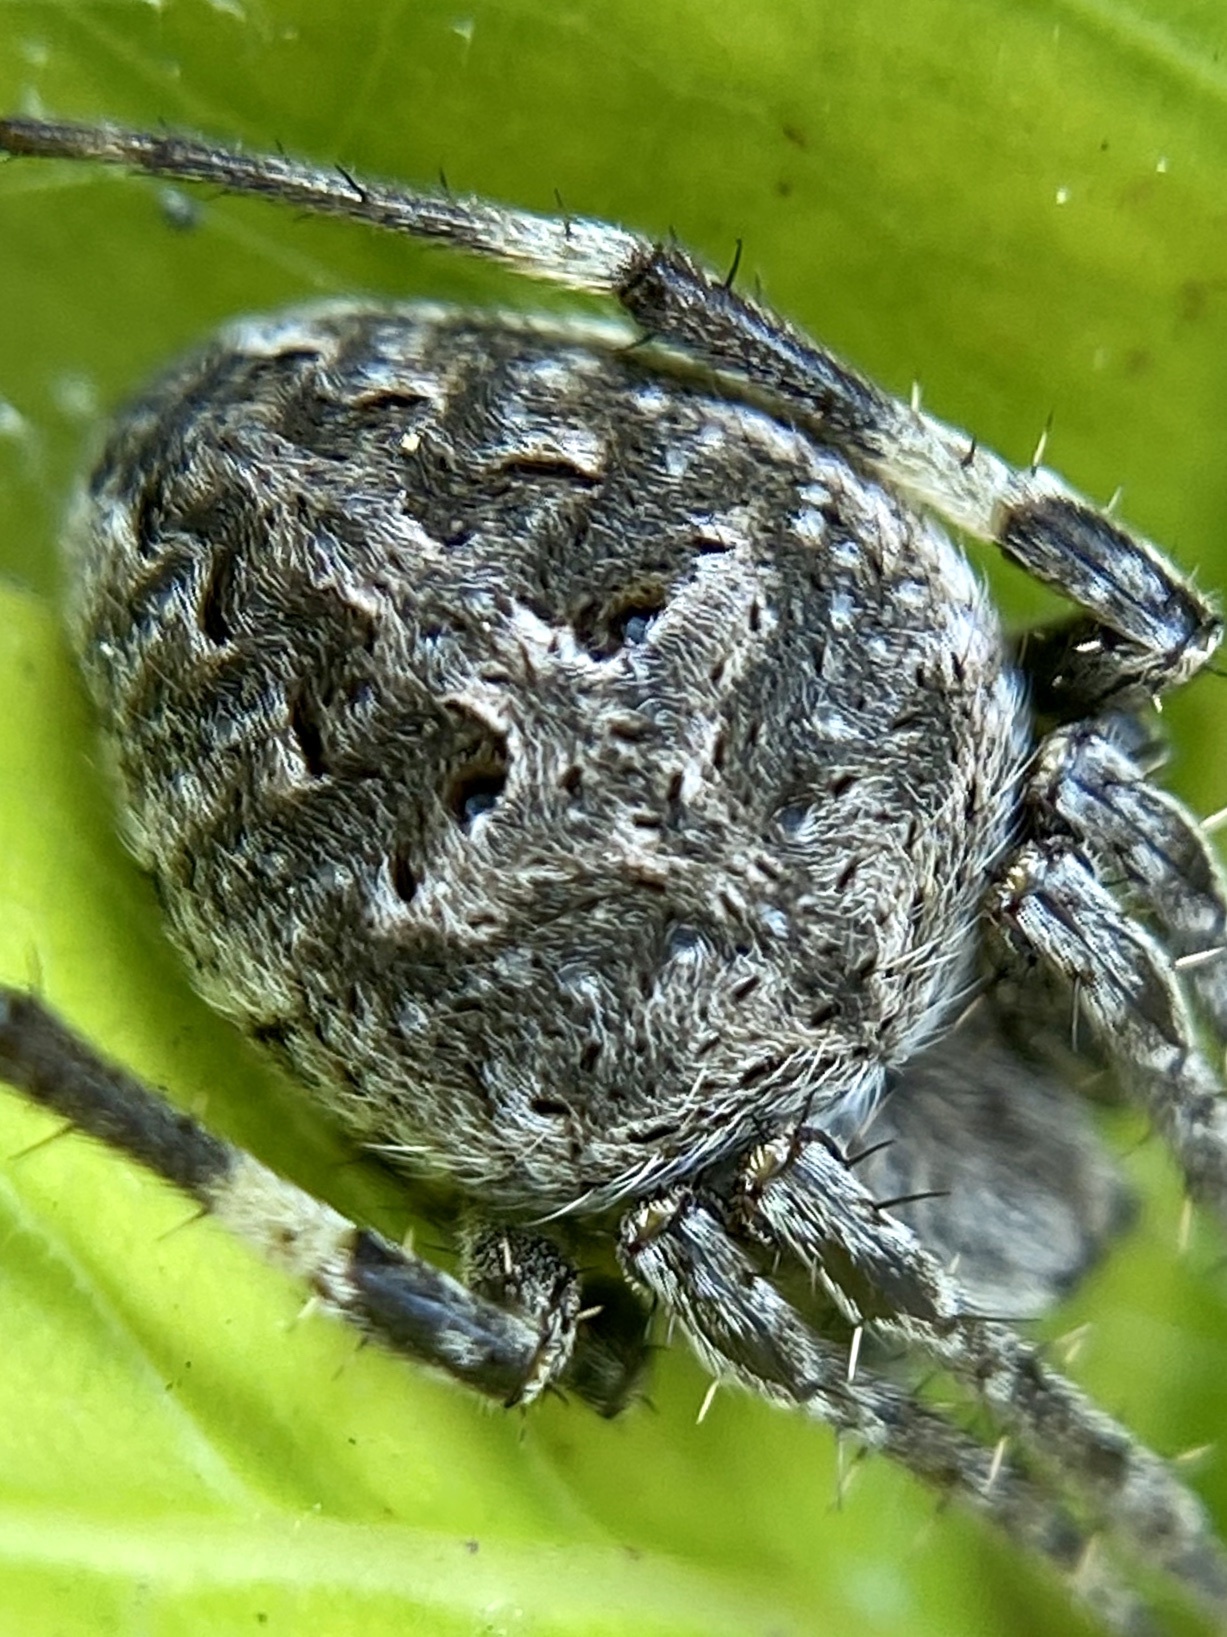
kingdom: Animalia
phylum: Arthropoda
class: Arachnida
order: Araneae
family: Araneidae
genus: Neoscona
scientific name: Neoscona nautica
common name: Orb weavers
